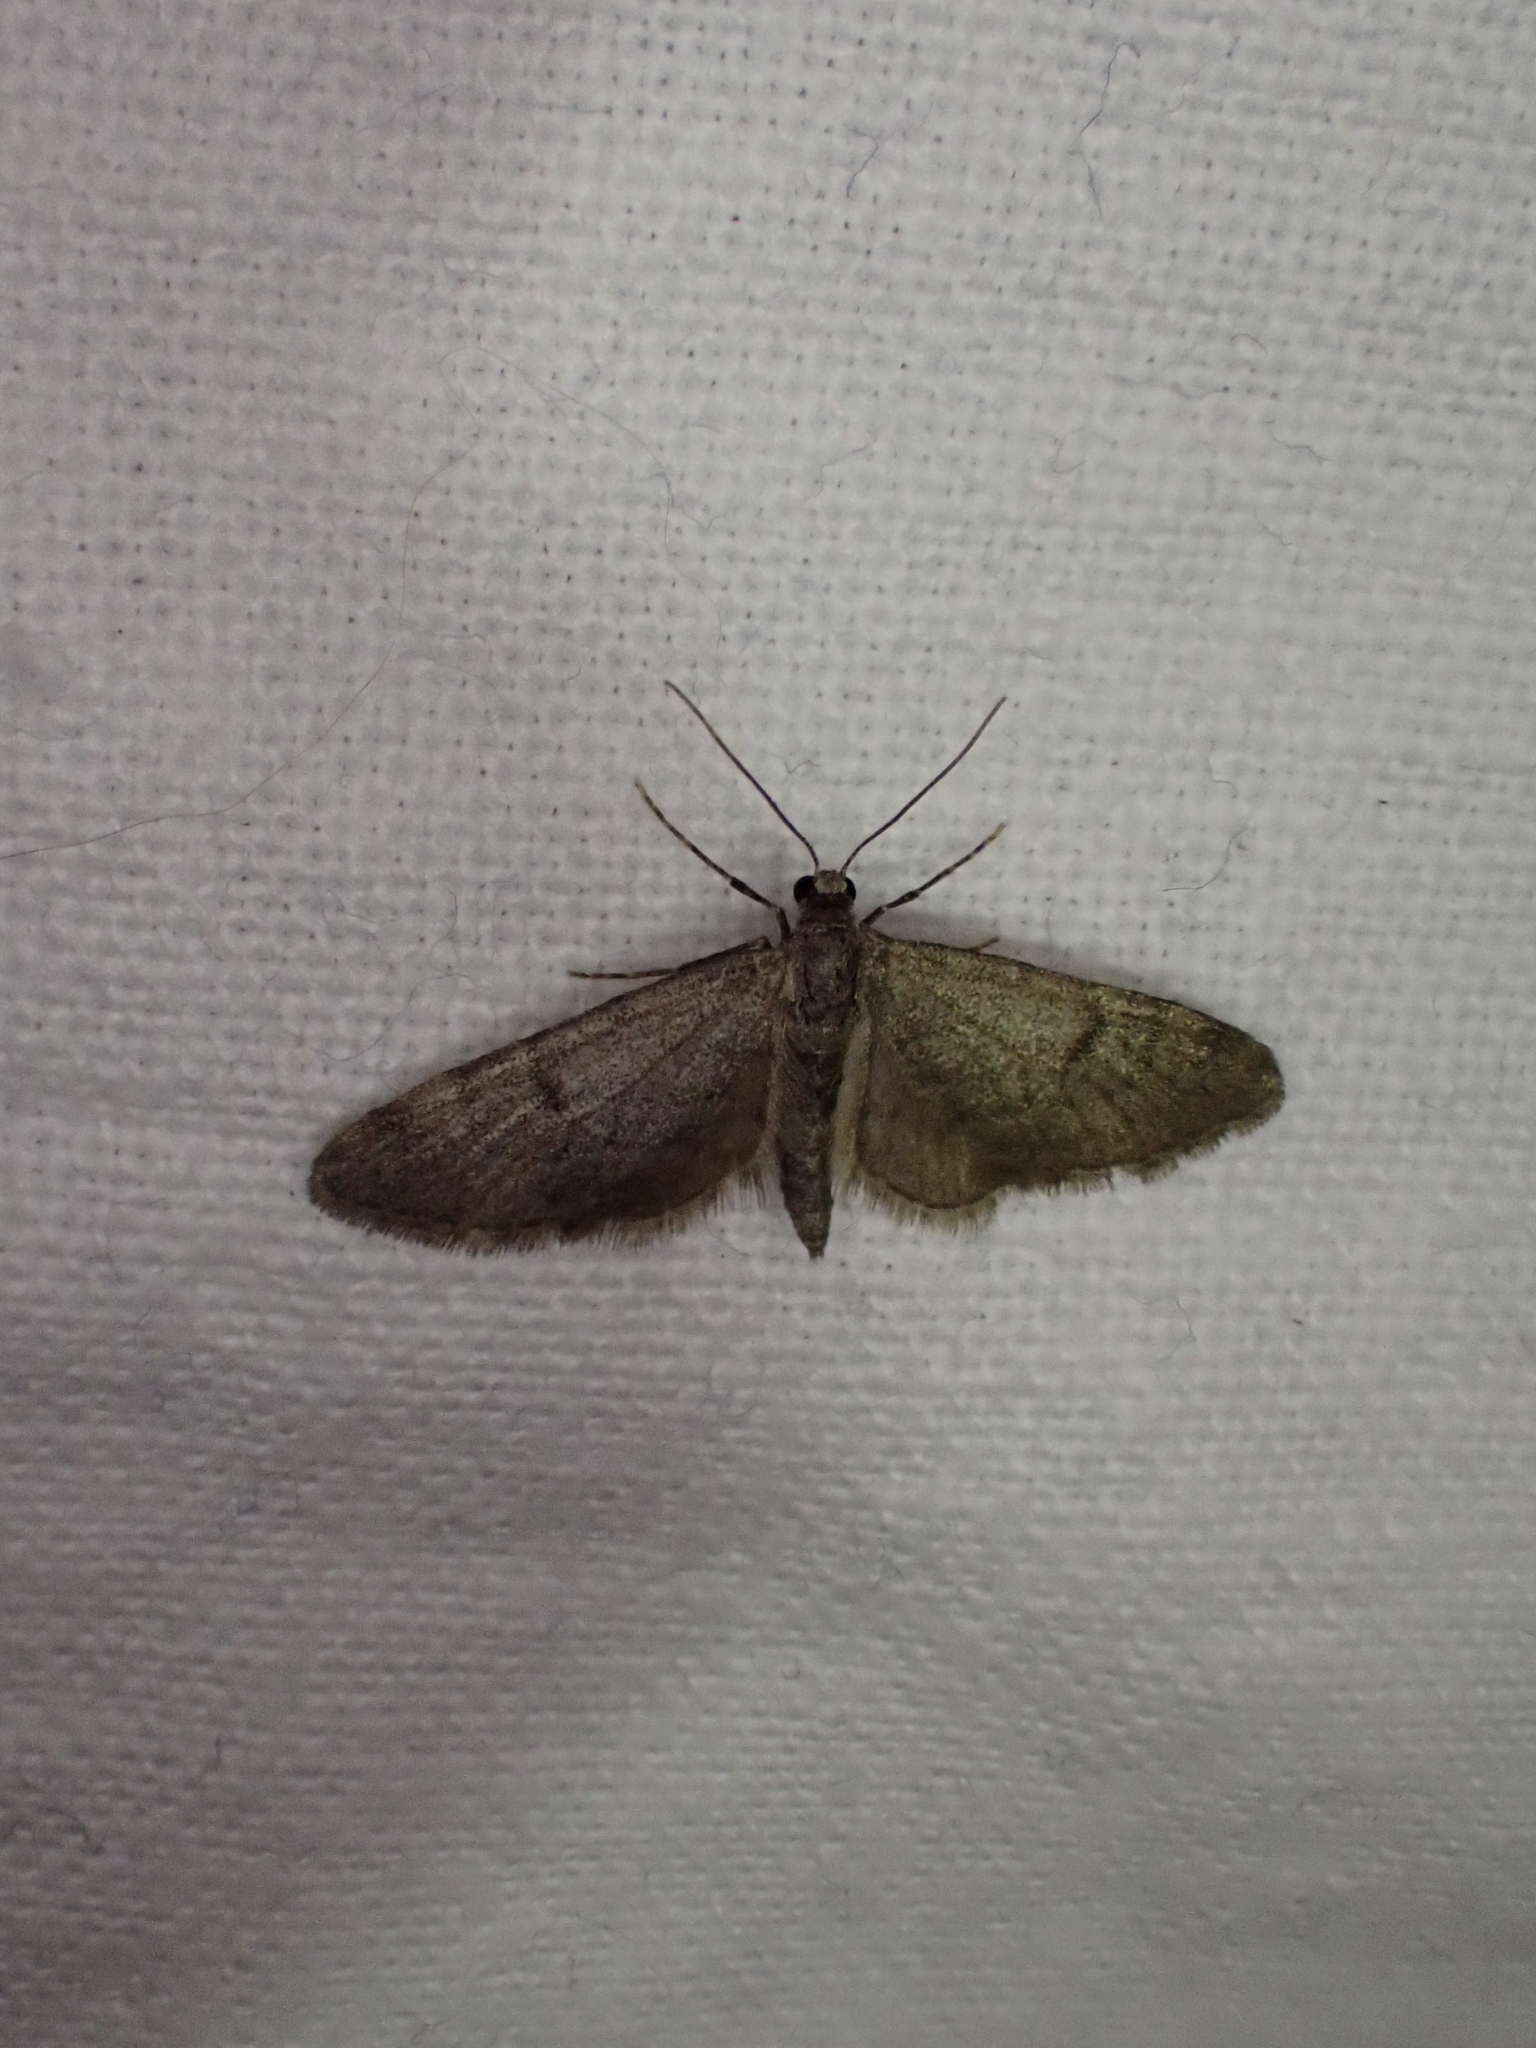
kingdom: Animalia
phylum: Arthropoda
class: Insecta
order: Lepidoptera
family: Geometridae
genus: Eupithecia
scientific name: Eupithecia indigata
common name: Ochreous pug
